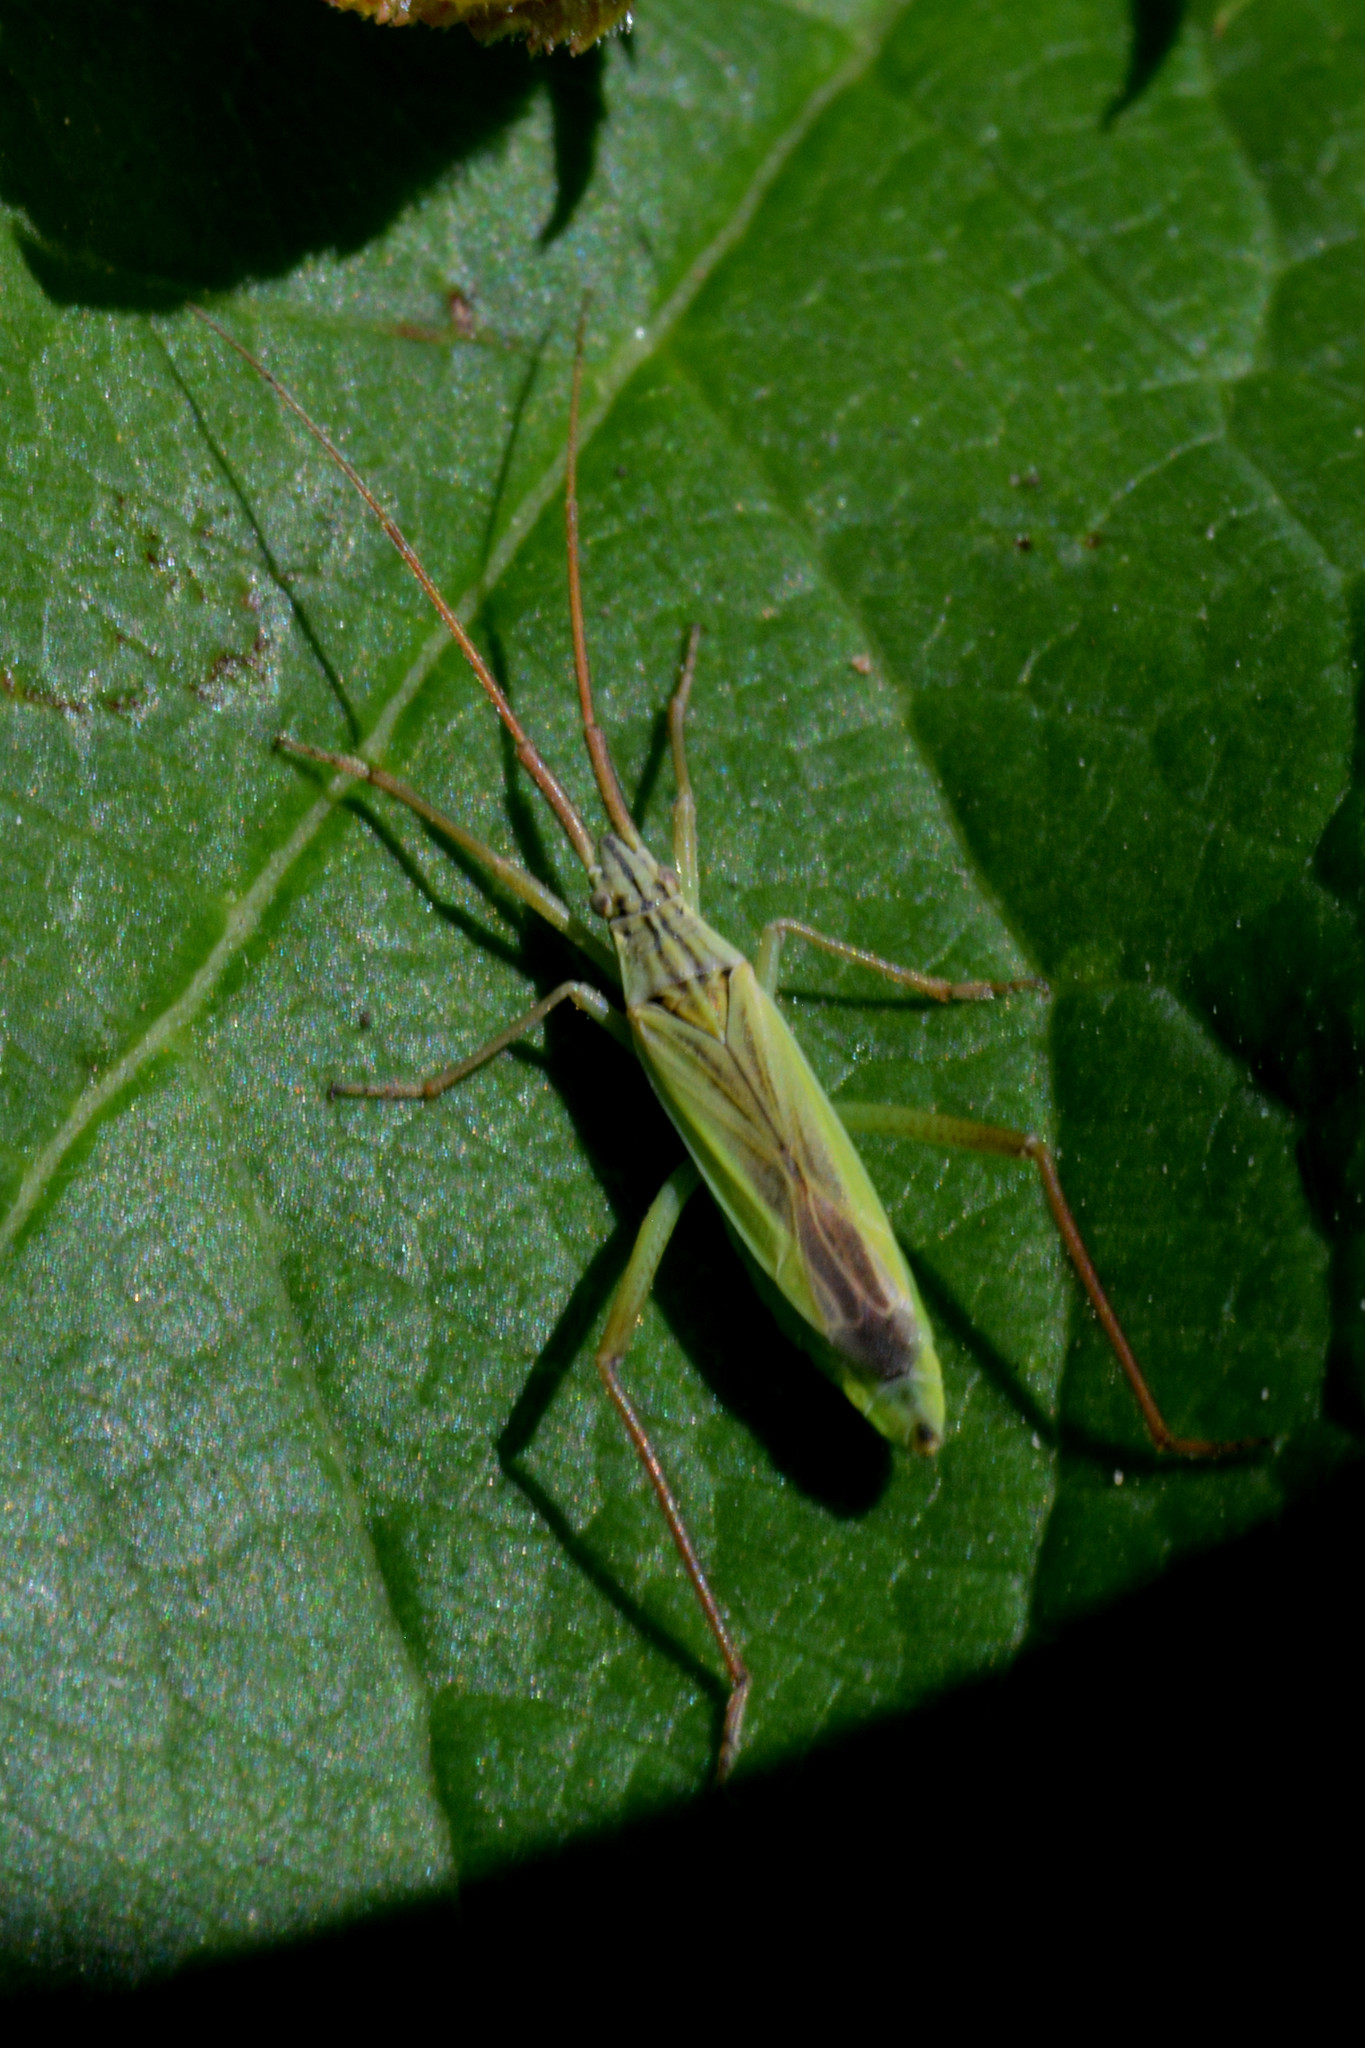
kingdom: Animalia
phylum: Arthropoda
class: Insecta
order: Hemiptera
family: Miridae
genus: Notostira
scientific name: Notostira elongata
